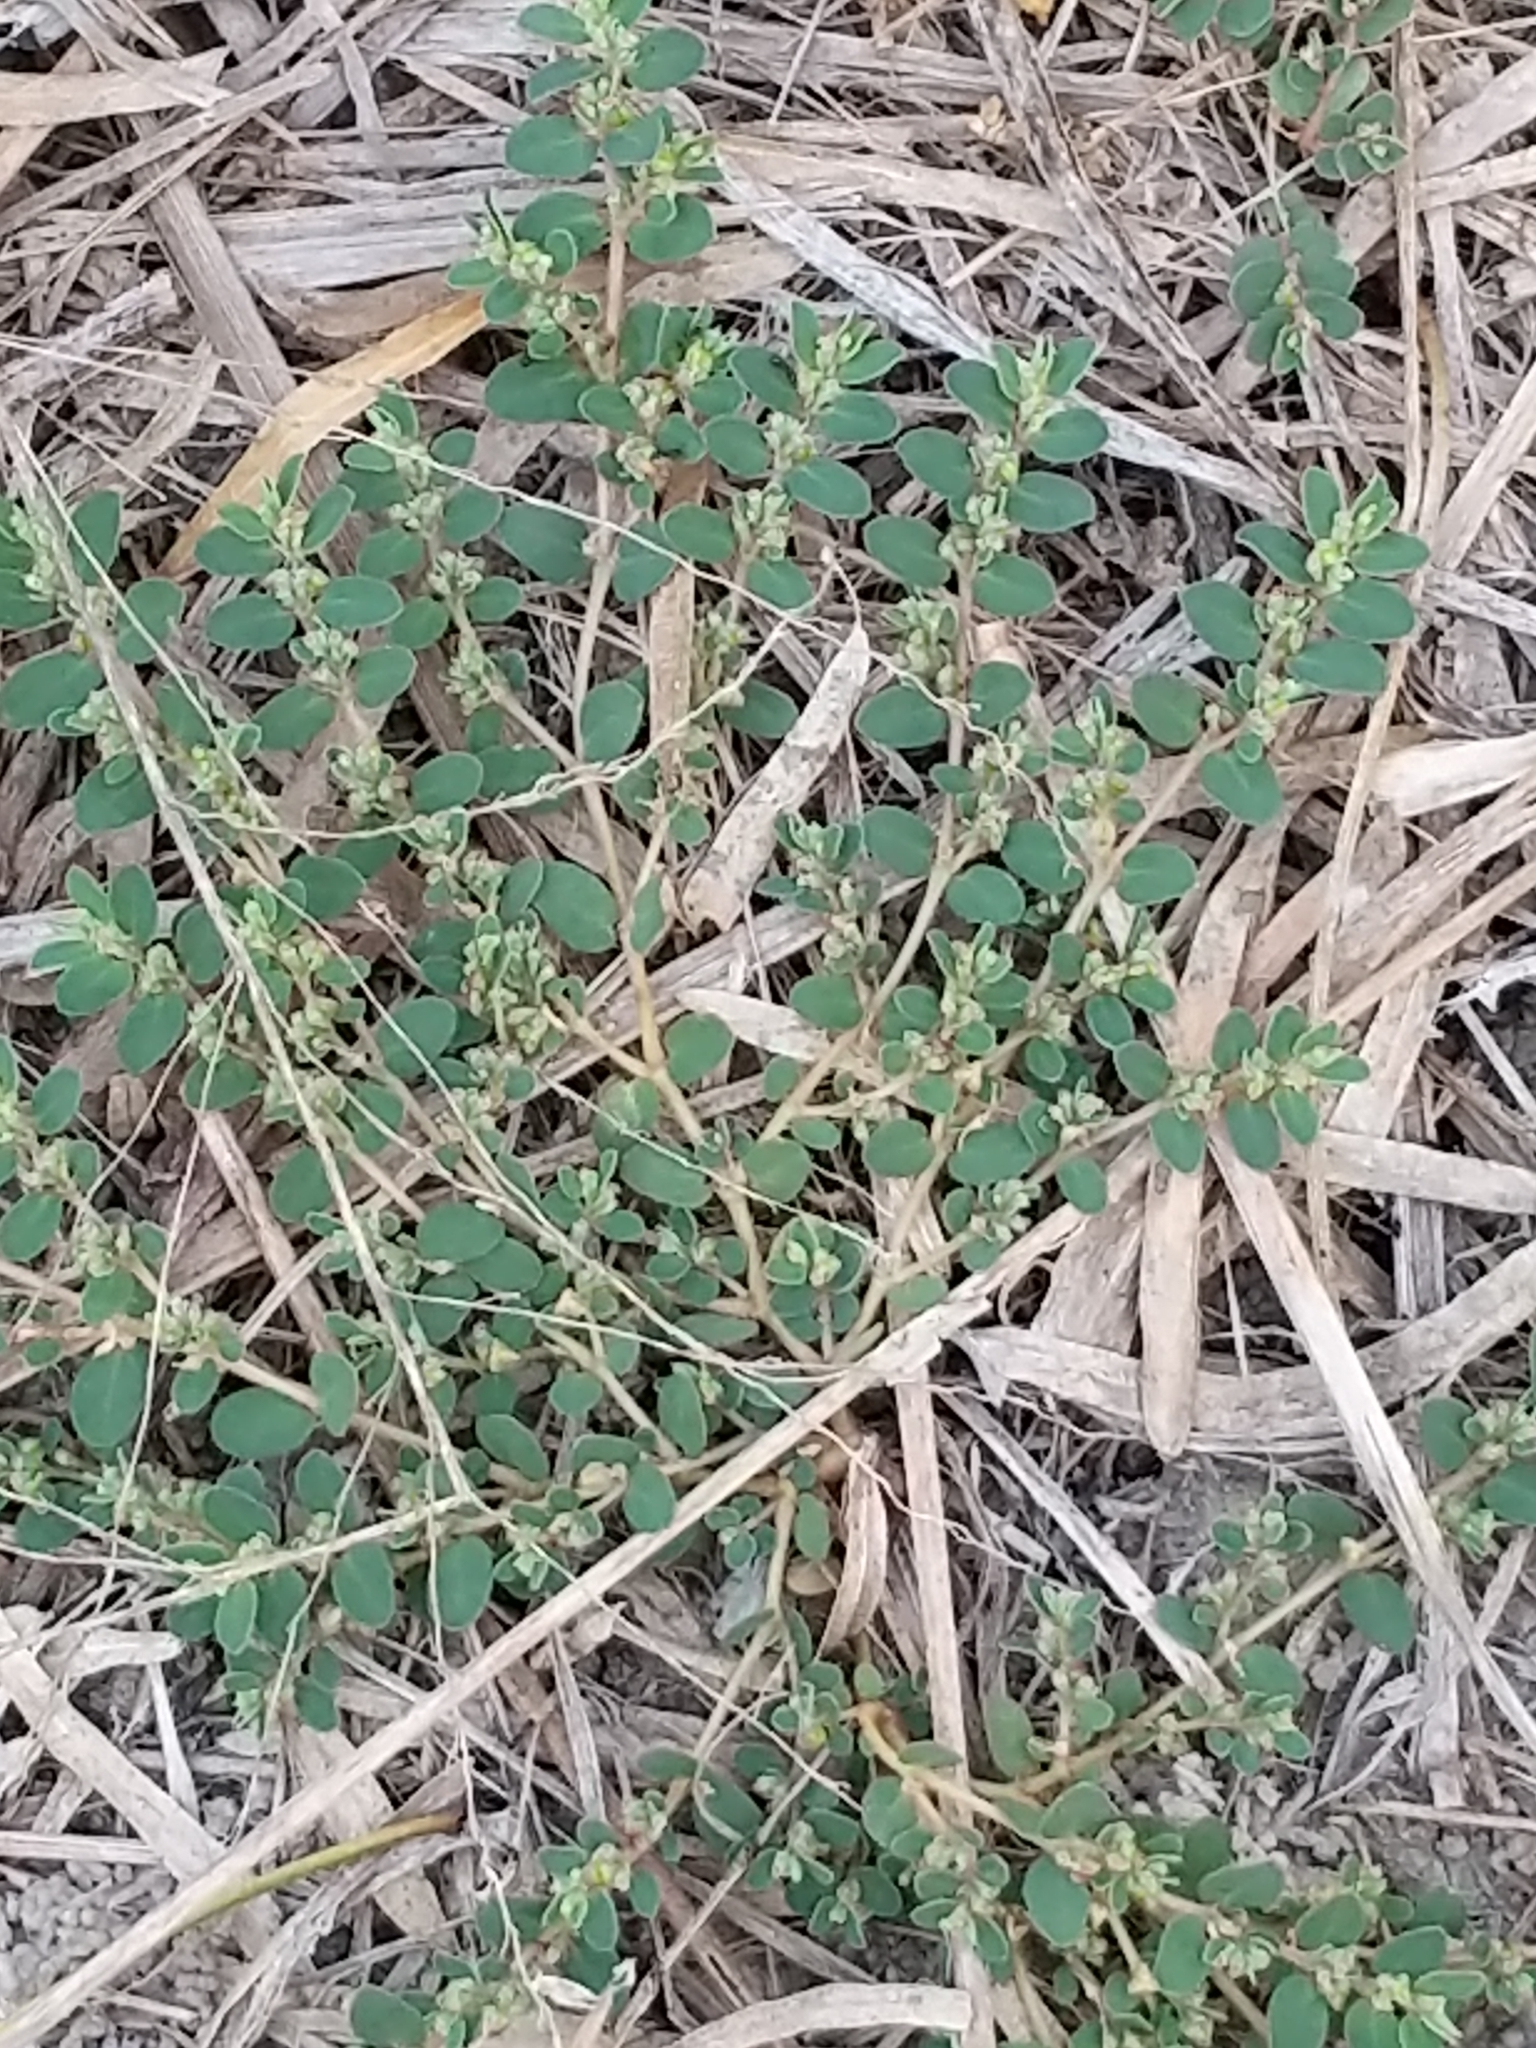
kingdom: Plantae
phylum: Tracheophyta
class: Magnoliopsida
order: Malpighiales
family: Euphorbiaceae
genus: Euphorbia
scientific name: Euphorbia prostrata
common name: Prostrate sandmat
